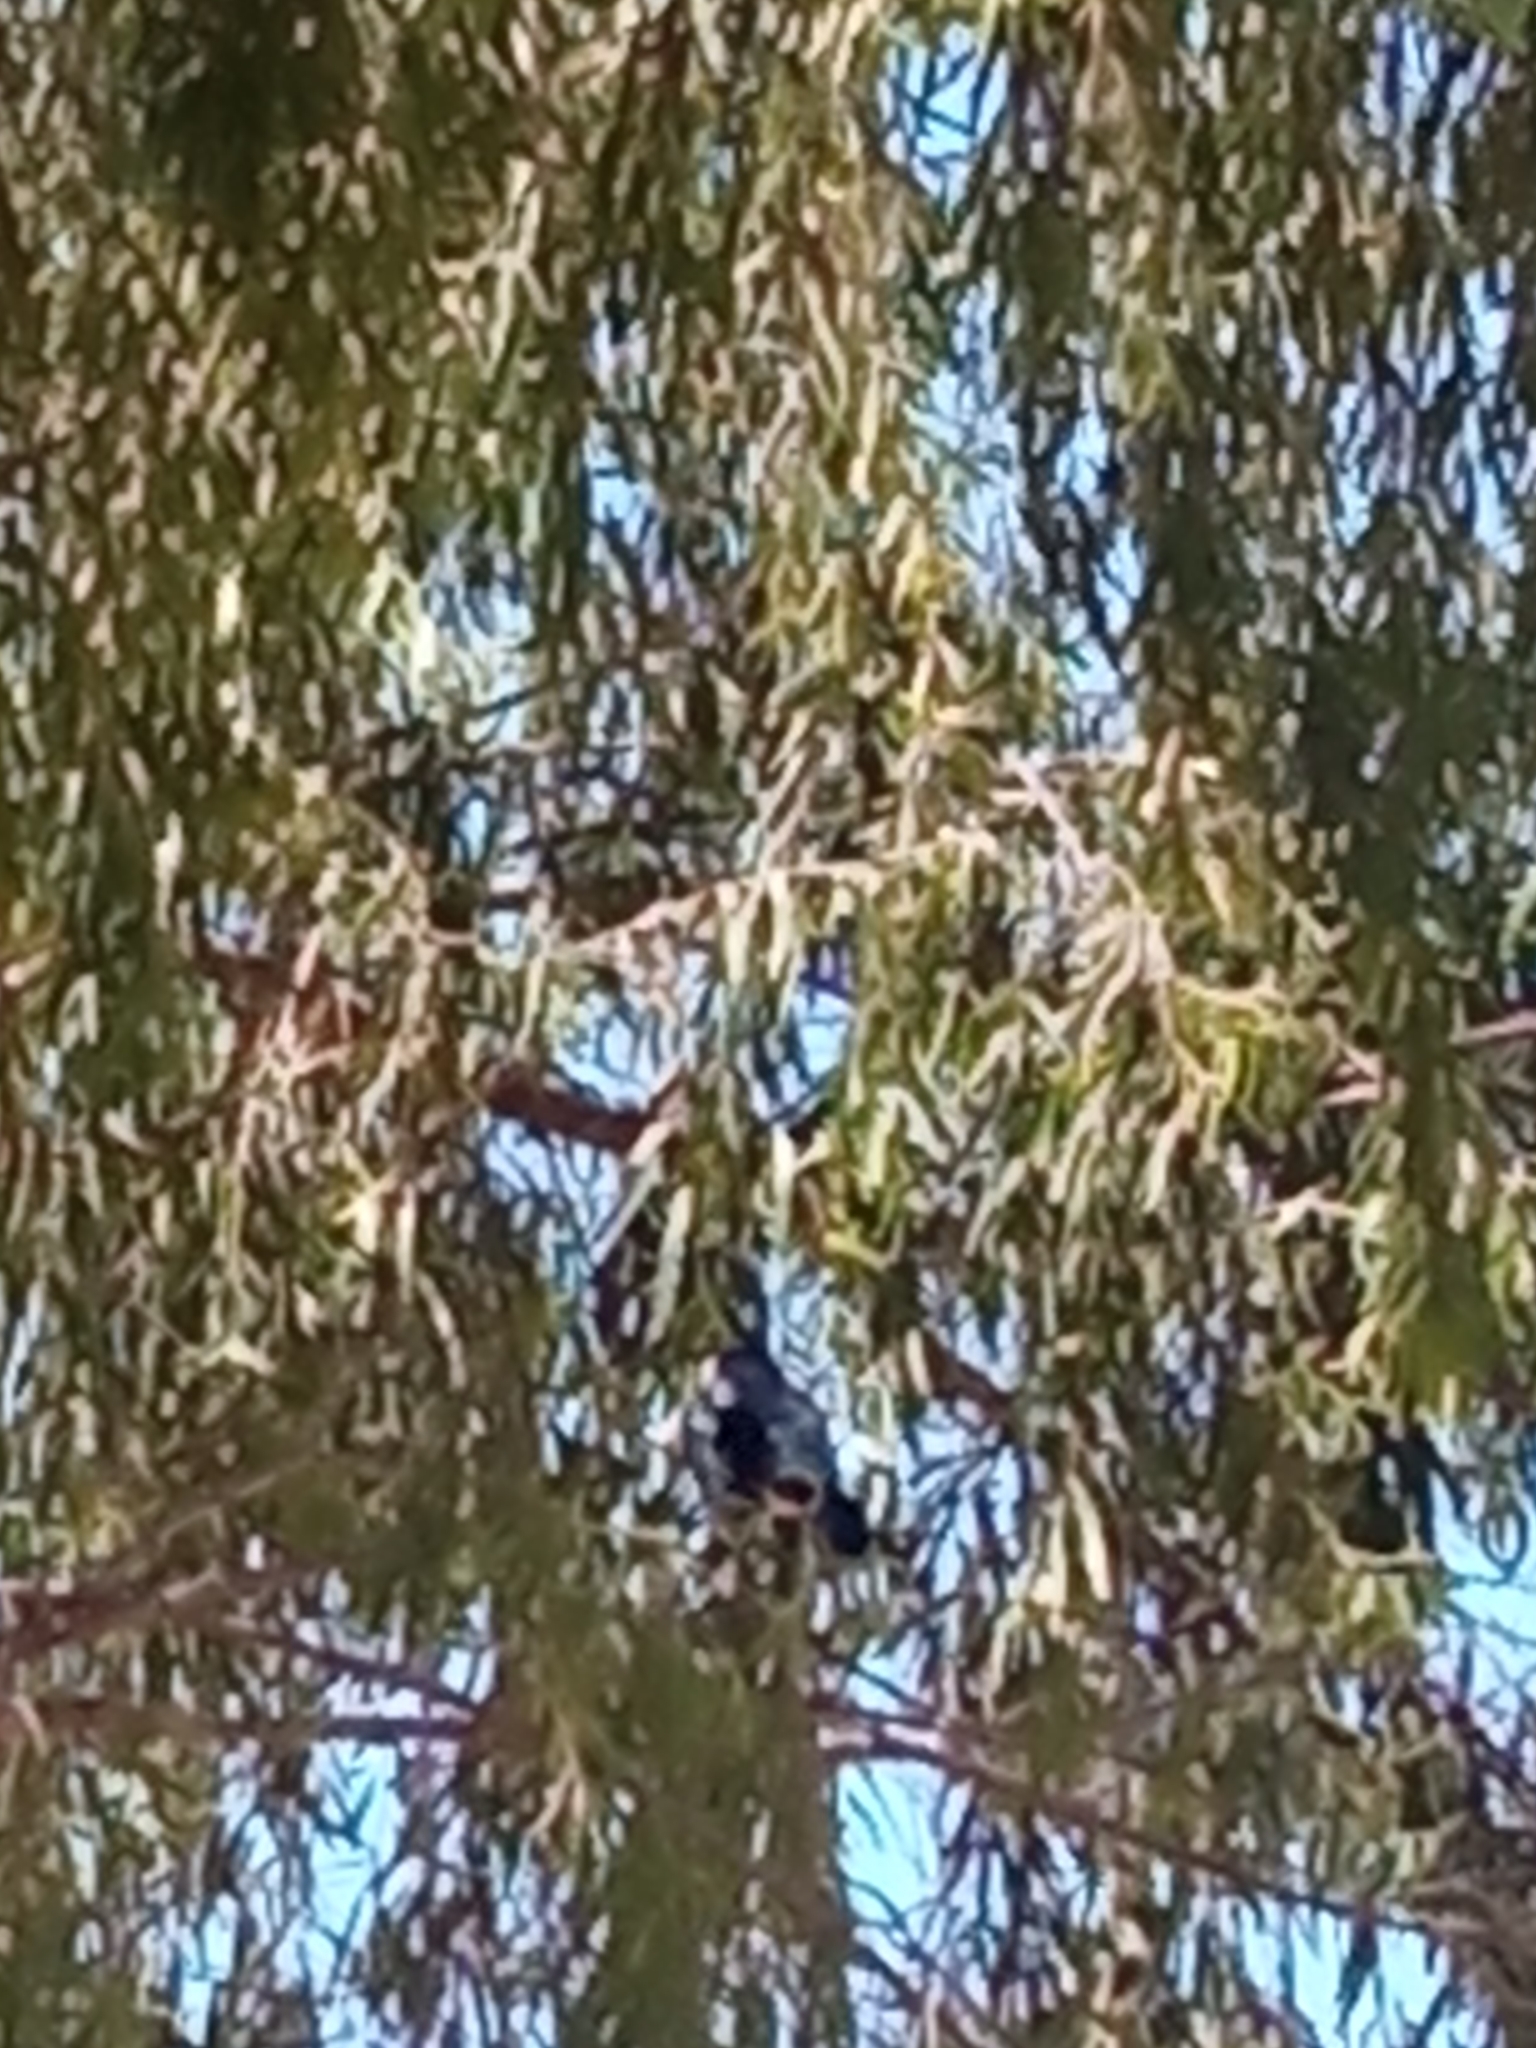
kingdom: Animalia
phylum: Chordata
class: Aves
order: Passeriformes
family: Icteridae
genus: Quiscalus
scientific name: Quiscalus mexicanus
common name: Great-tailed grackle
